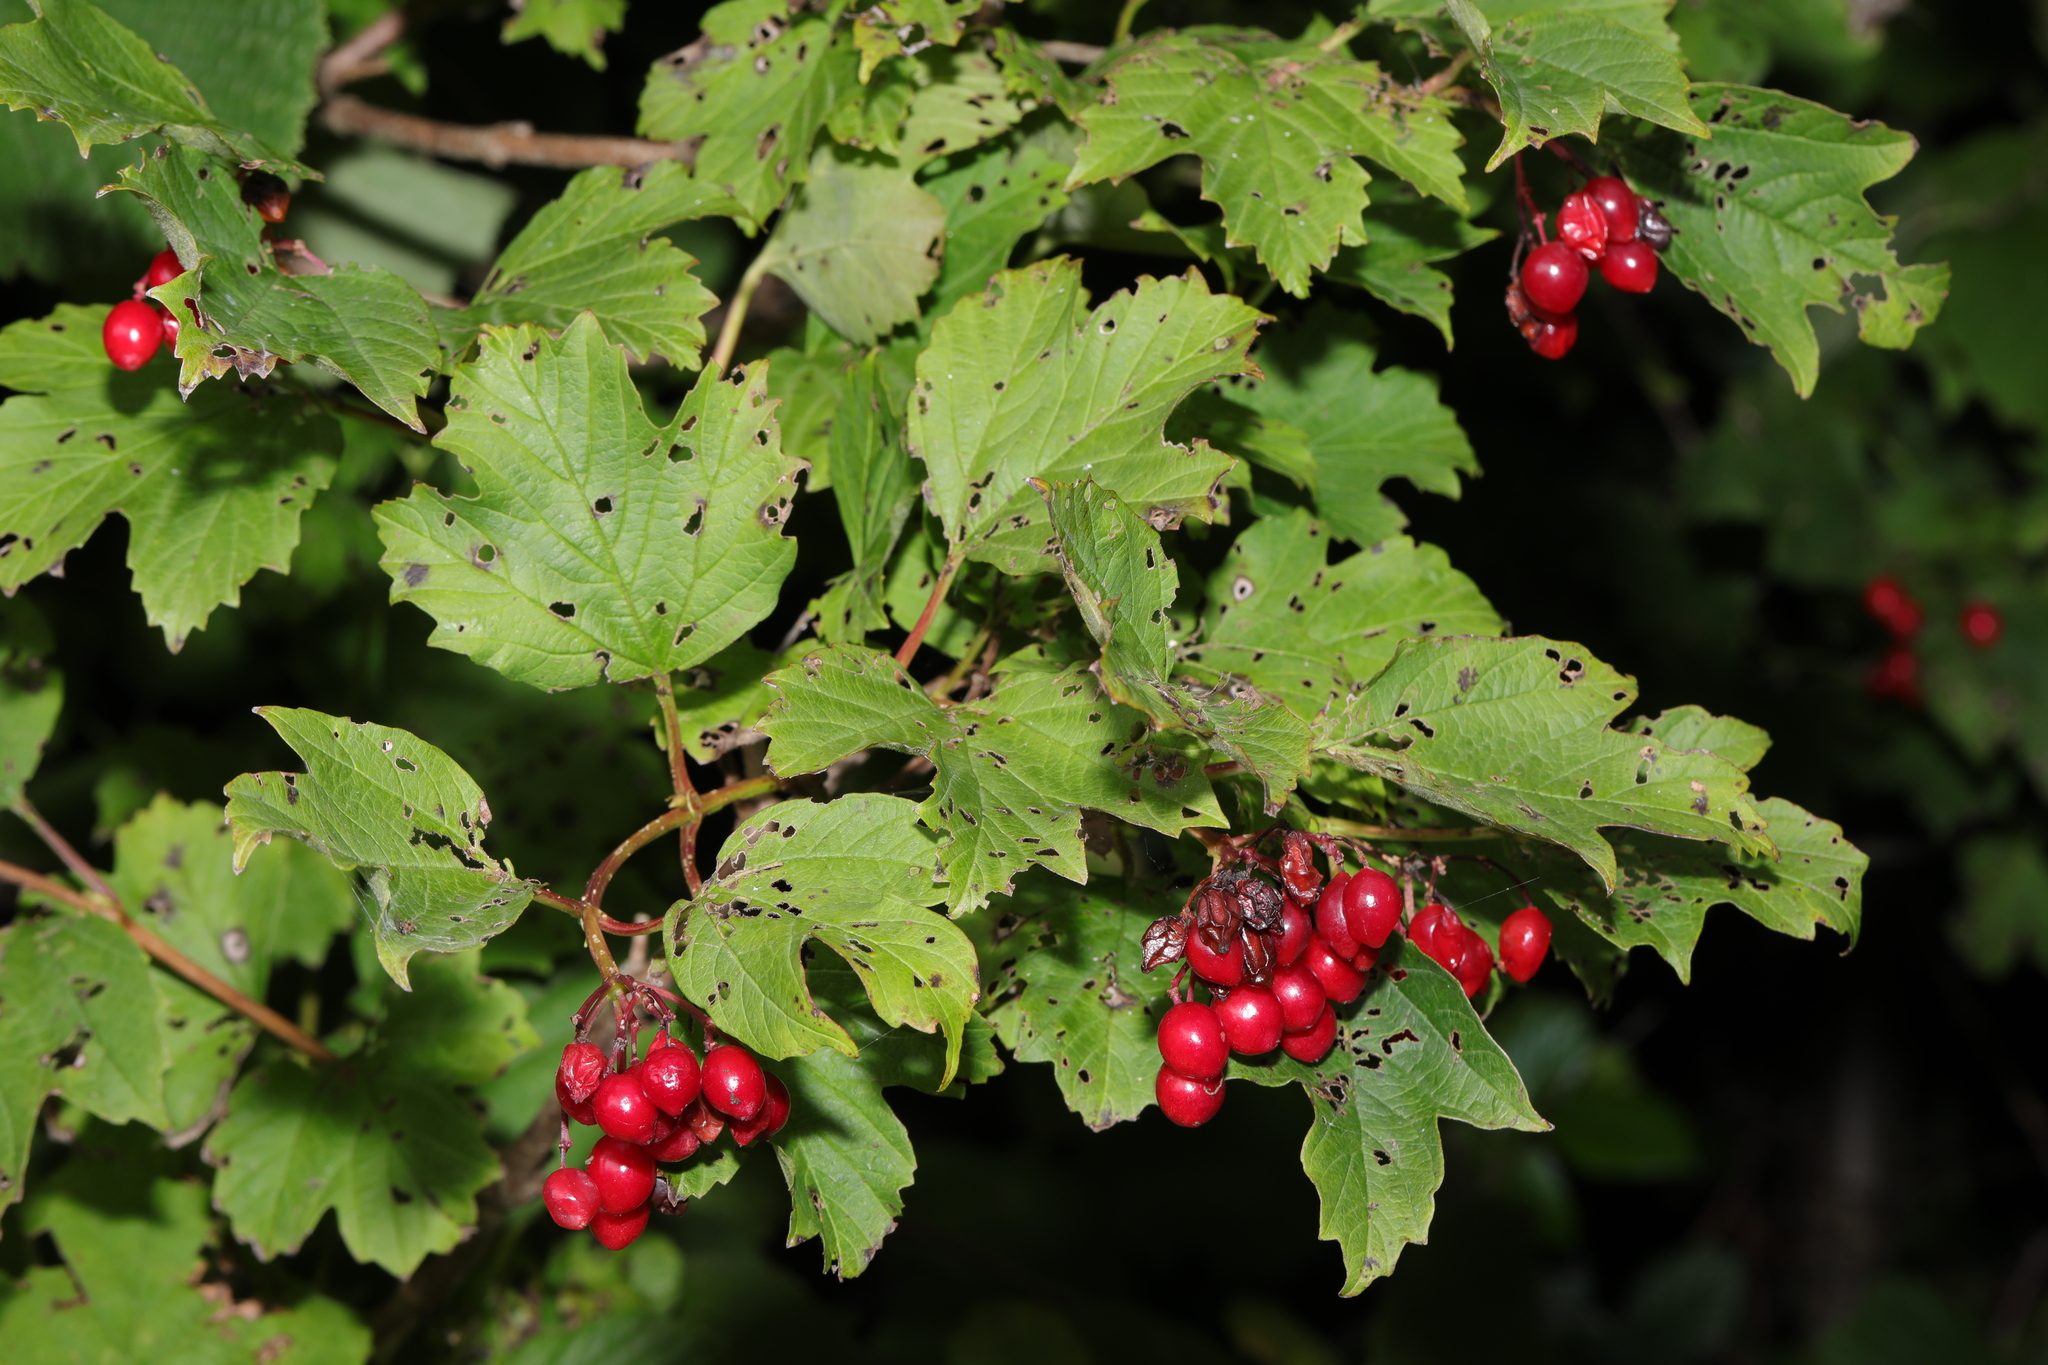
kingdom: Plantae
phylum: Tracheophyta
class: Magnoliopsida
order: Dipsacales
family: Viburnaceae
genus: Viburnum
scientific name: Viburnum opulus
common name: Guelder-rose
